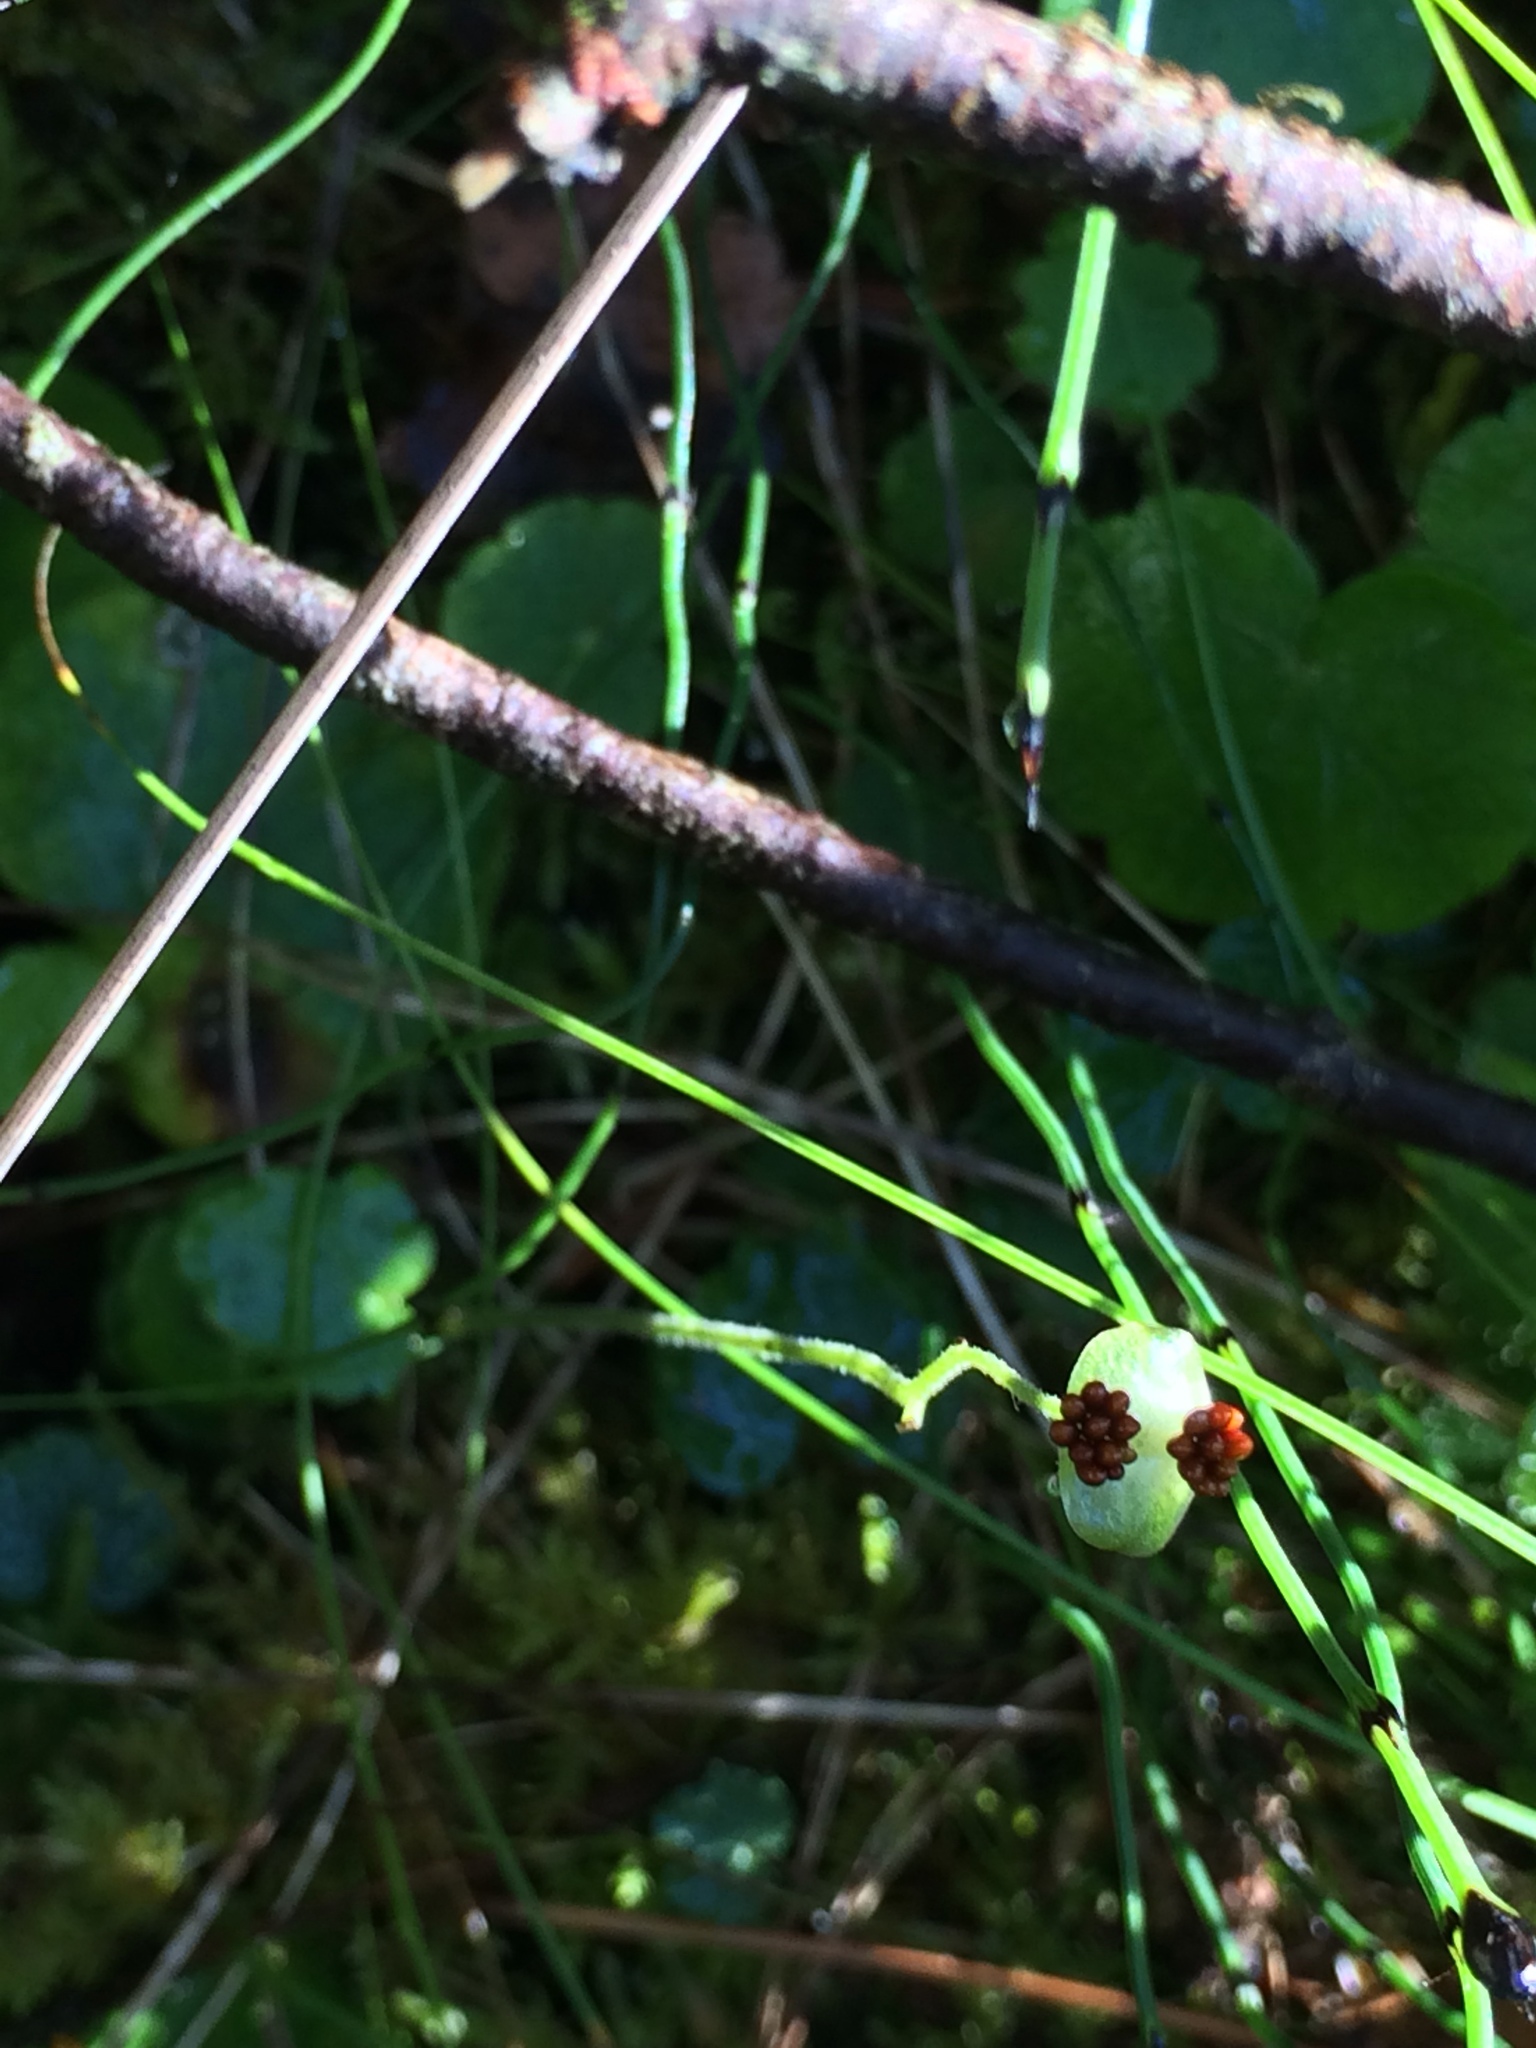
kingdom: Plantae
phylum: Tracheophyta
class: Magnoliopsida
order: Saxifragales
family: Saxifragaceae
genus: Mitella
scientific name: Mitella nuda
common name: Bare-stemmed bishop's-cap
